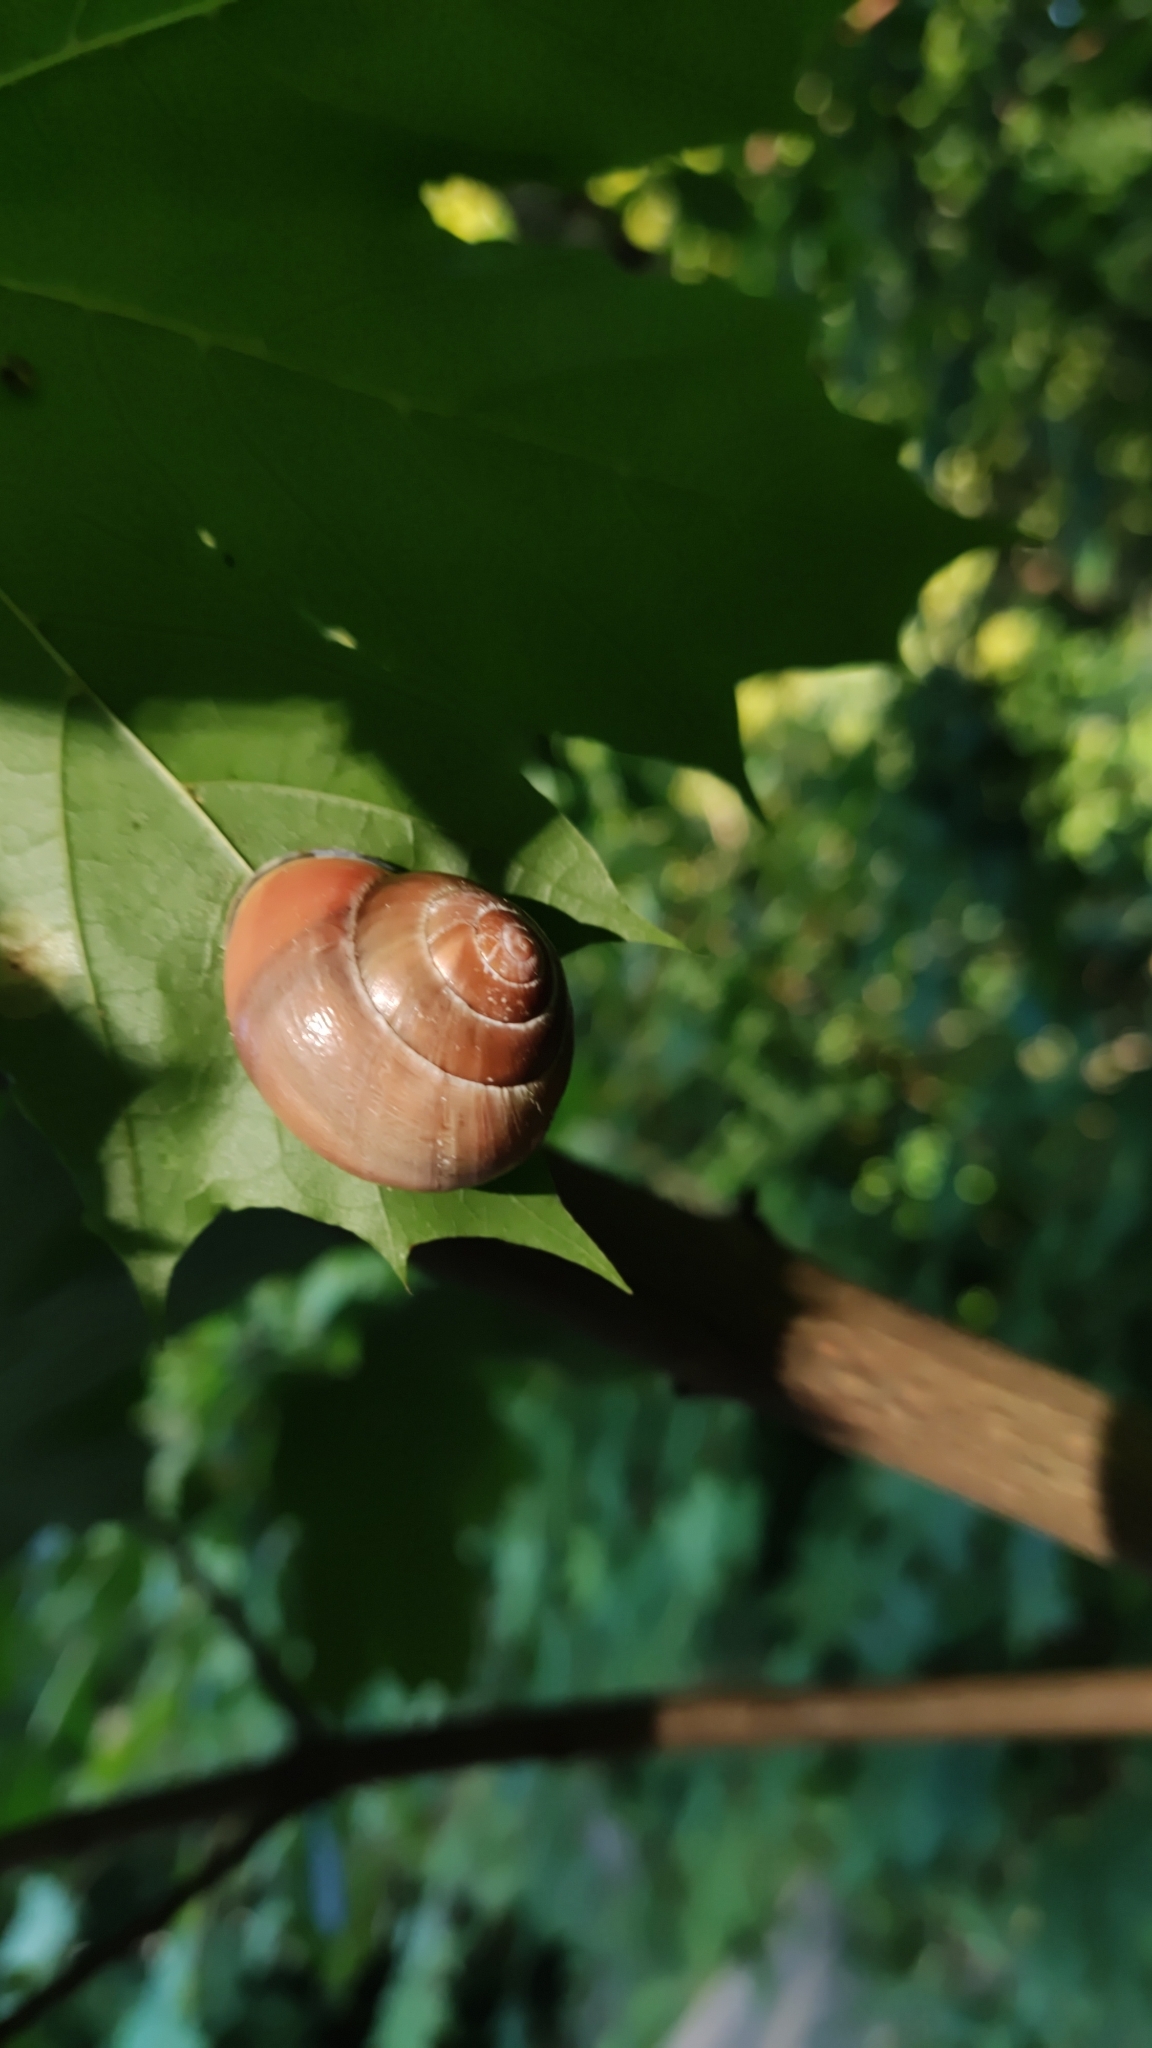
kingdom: Animalia
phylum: Mollusca
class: Gastropoda
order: Stylommatophora
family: Helicidae
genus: Cepaea
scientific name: Cepaea nemoralis
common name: Grovesnail
